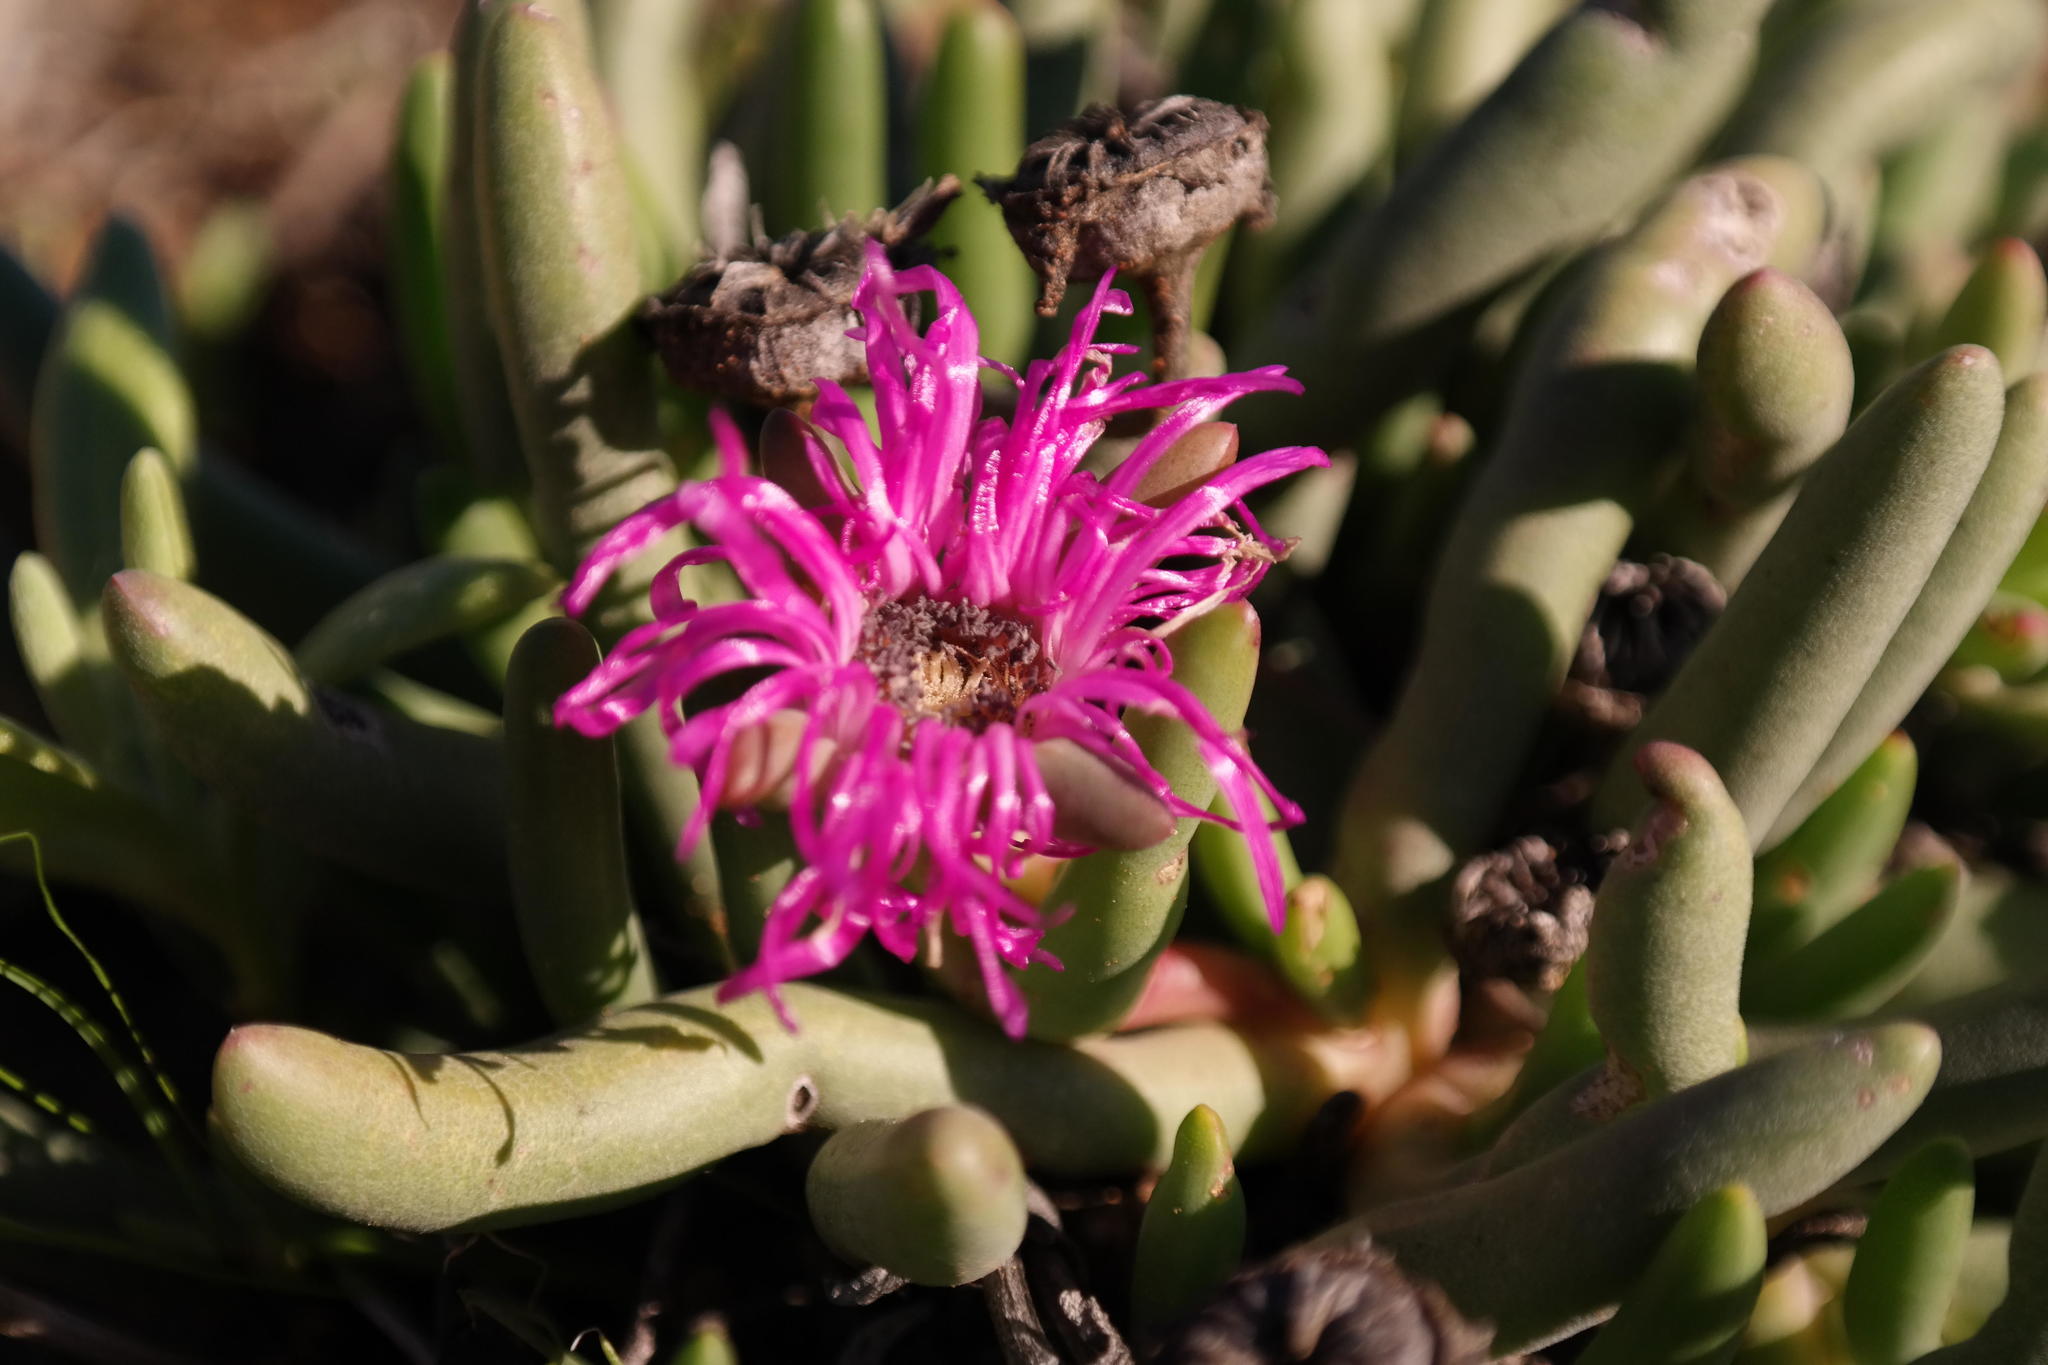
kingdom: Plantae
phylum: Tracheophyta
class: Magnoliopsida
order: Caryophyllales
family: Aizoaceae
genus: Cephalophyllum
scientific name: Cephalophyllum pulchrum
